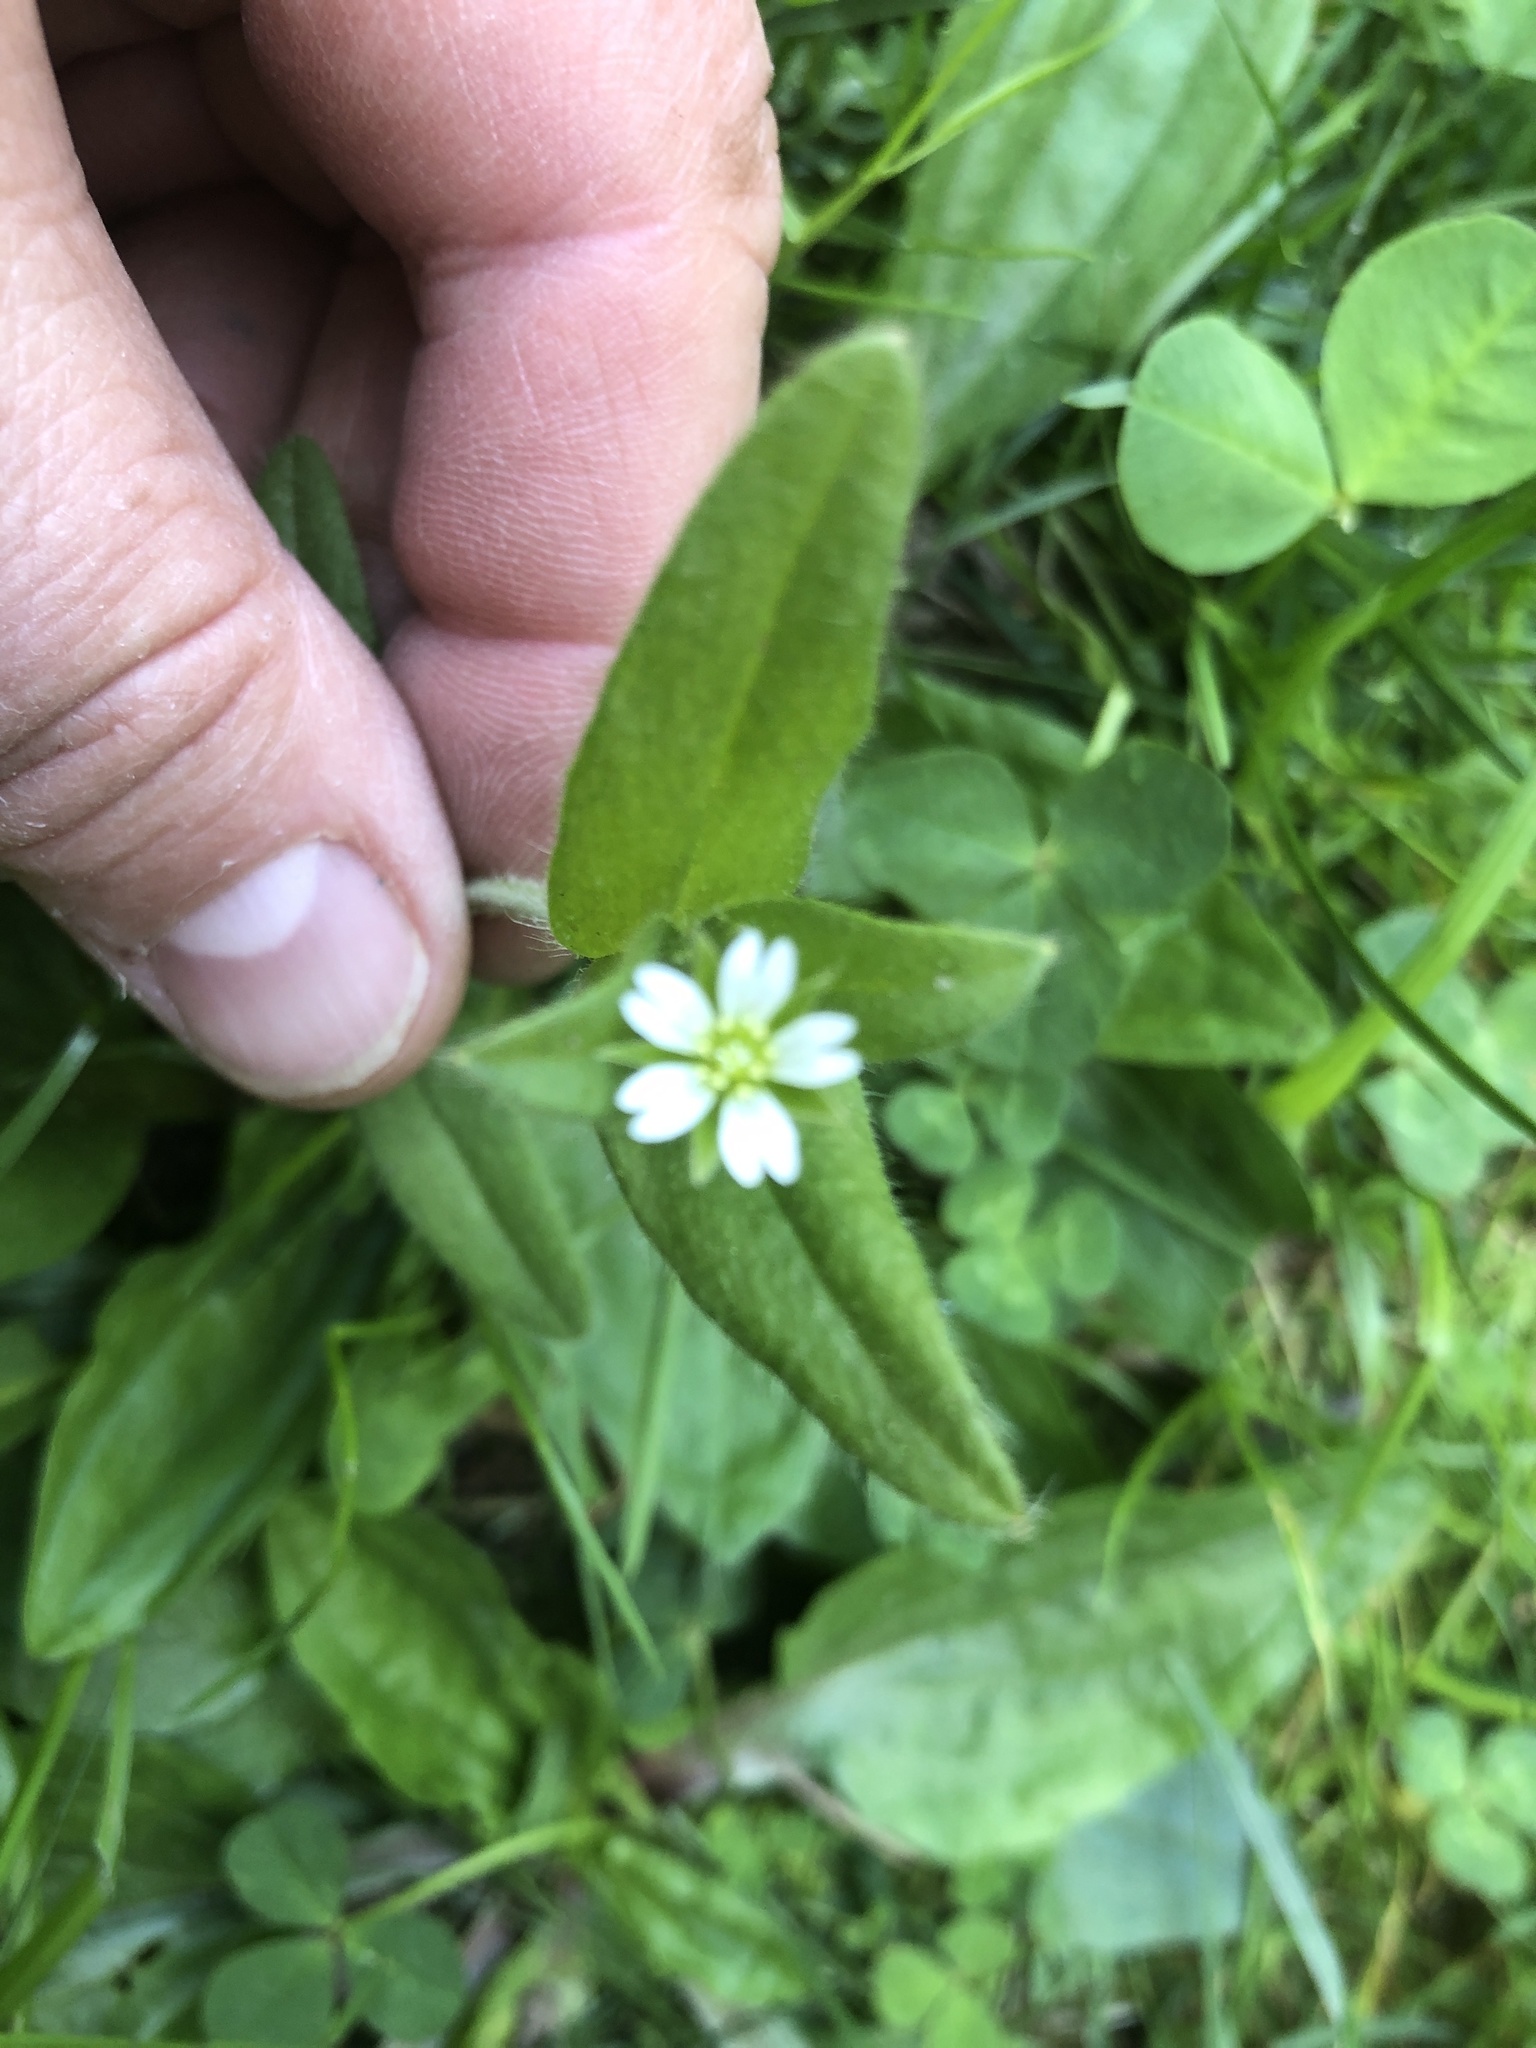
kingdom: Plantae
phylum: Tracheophyta
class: Magnoliopsida
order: Caryophyllales
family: Caryophyllaceae
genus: Cerastium
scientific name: Cerastium fontanum
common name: Common mouse-ear
